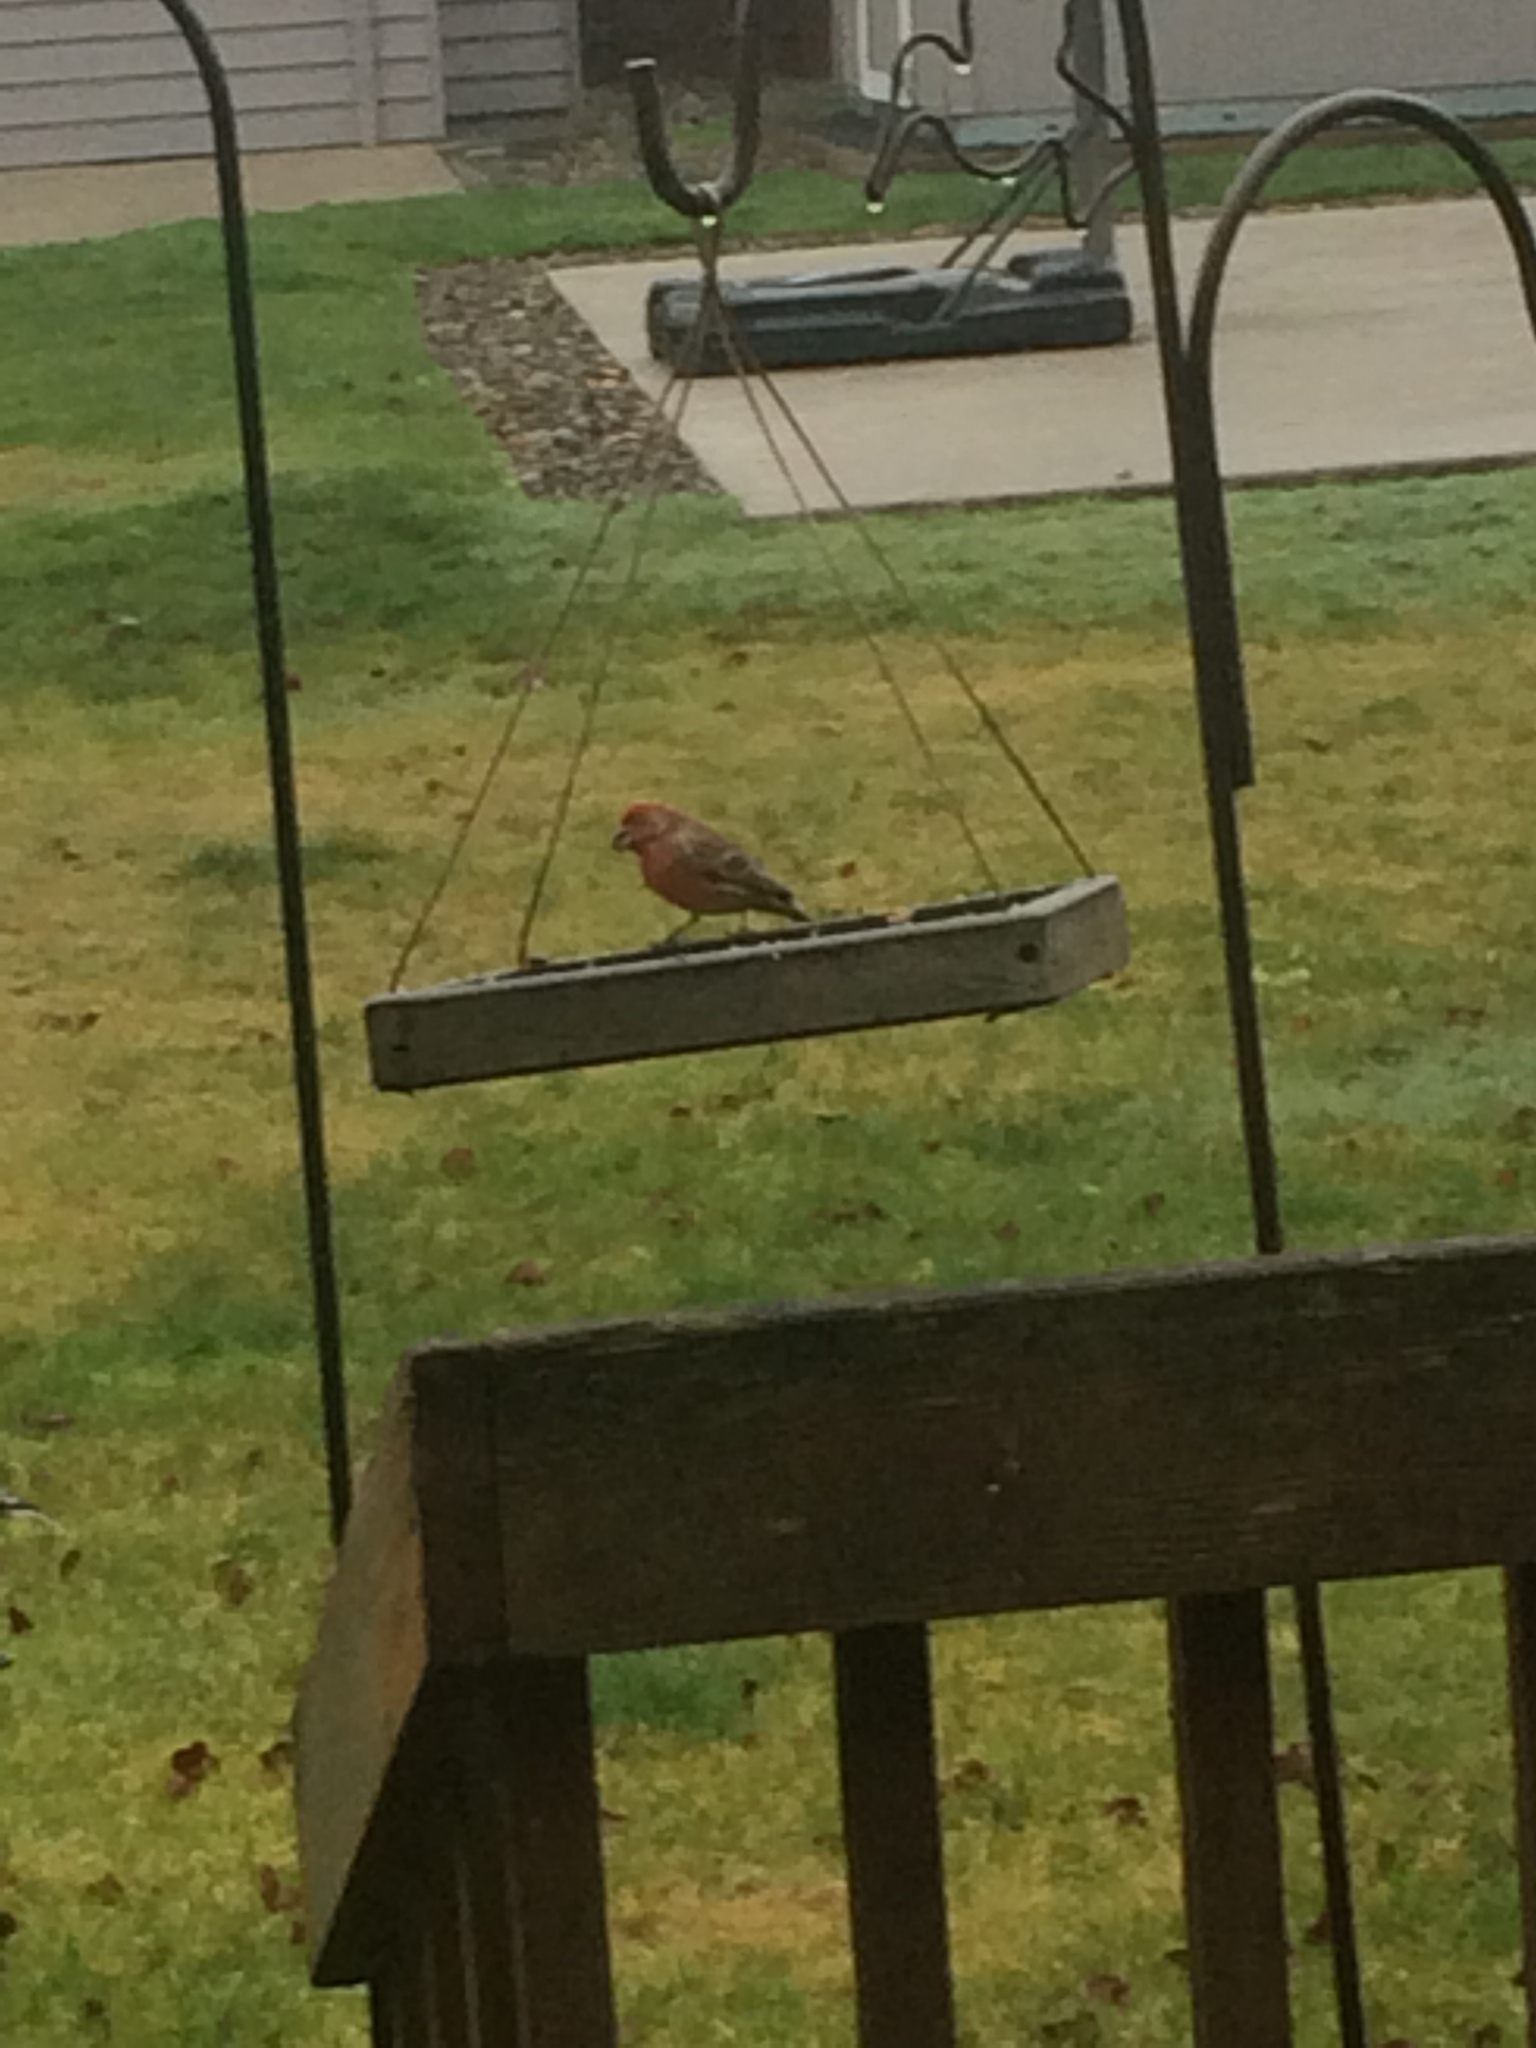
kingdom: Animalia
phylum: Chordata
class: Aves
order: Passeriformes
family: Fringillidae
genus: Haemorhous
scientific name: Haemorhous mexicanus
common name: House finch
